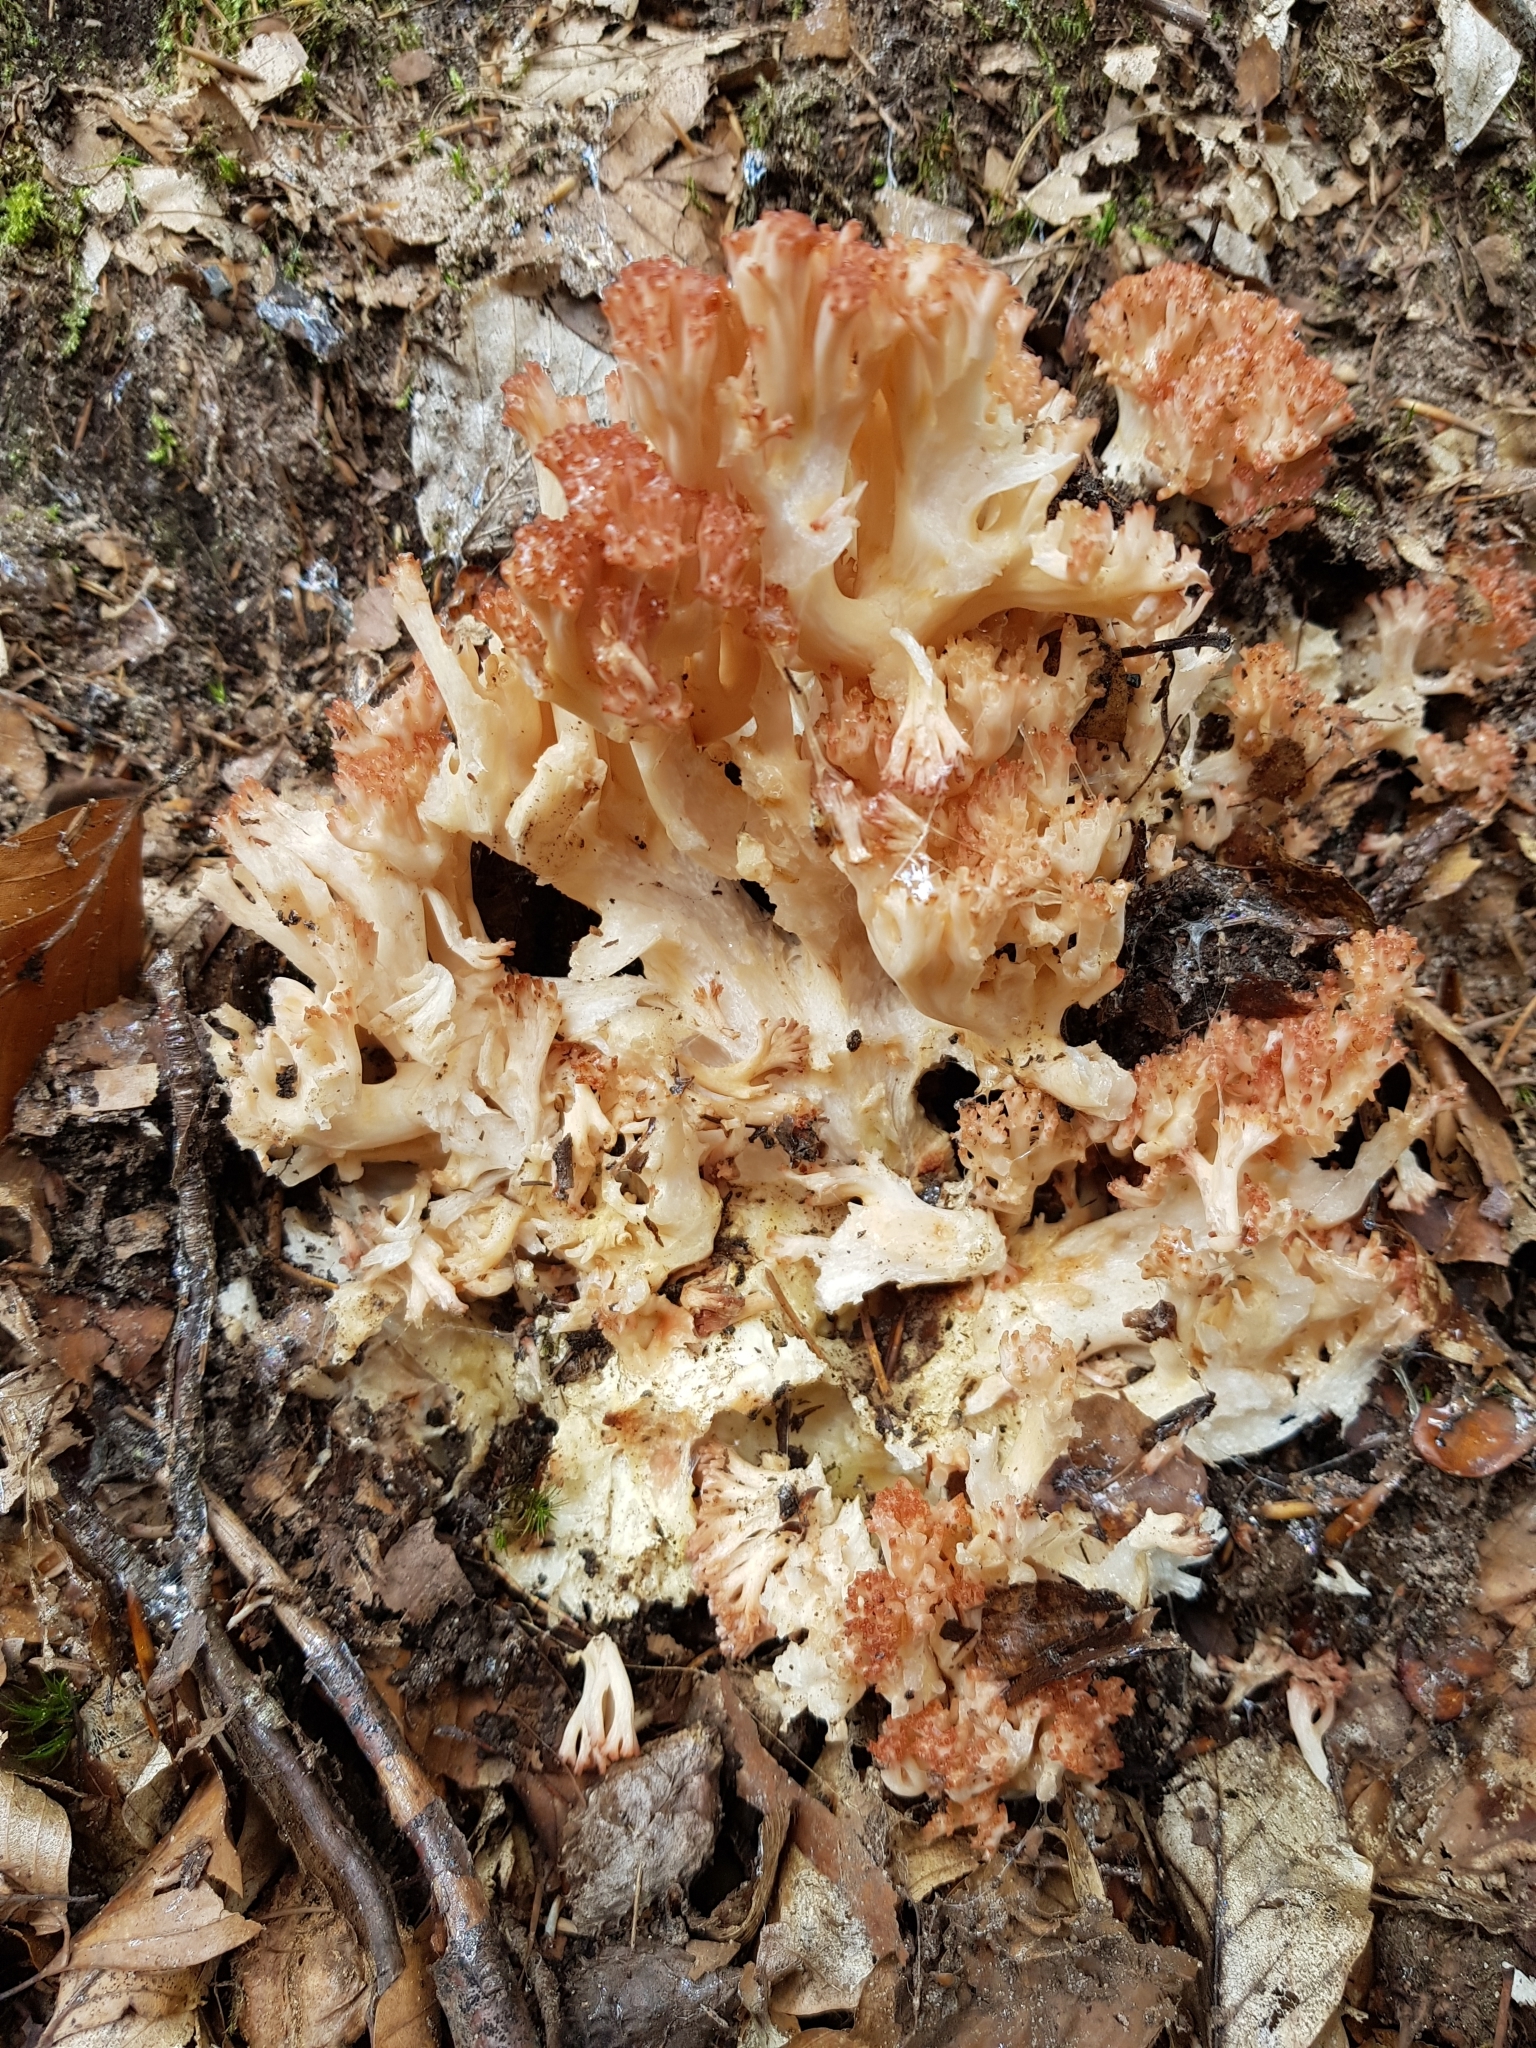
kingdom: Fungi
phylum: Basidiomycota
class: Agaricomycetes
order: Gomphales
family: Gomphaceae
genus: Ramaria
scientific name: Ramaria botrytis
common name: Rosso coral
